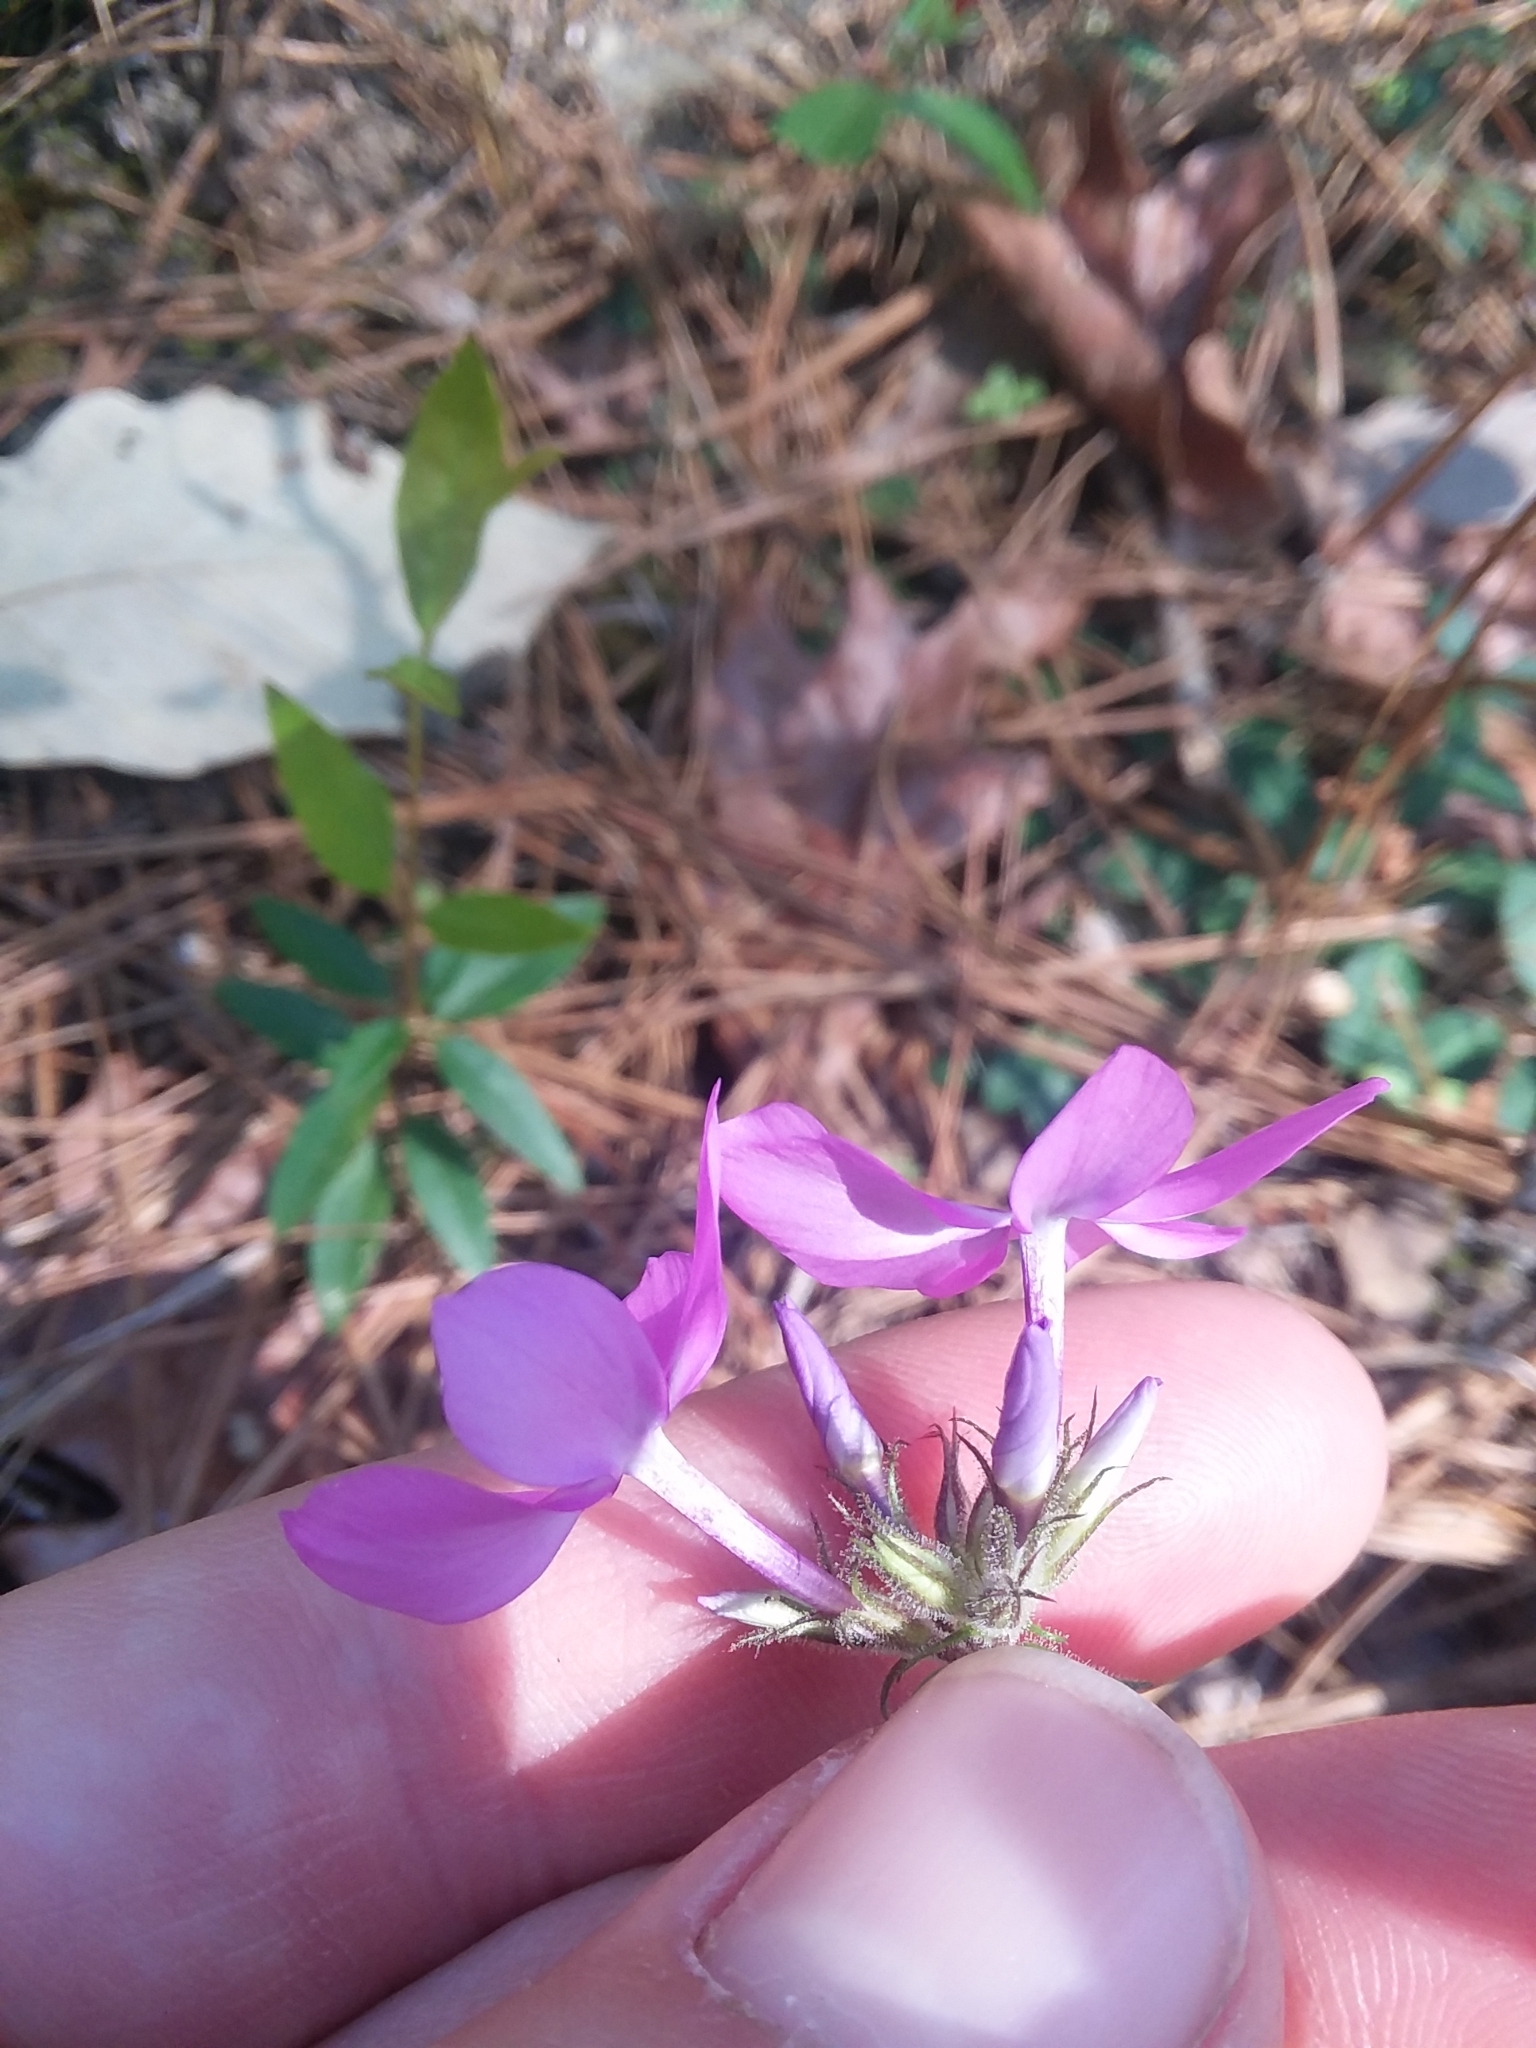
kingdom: Plantae
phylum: Tracheophyta
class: Magnoliopsida
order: Ericales
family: Polemoniaceae
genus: Phlox
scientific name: Phlox pilosa
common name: Prairie phlox
